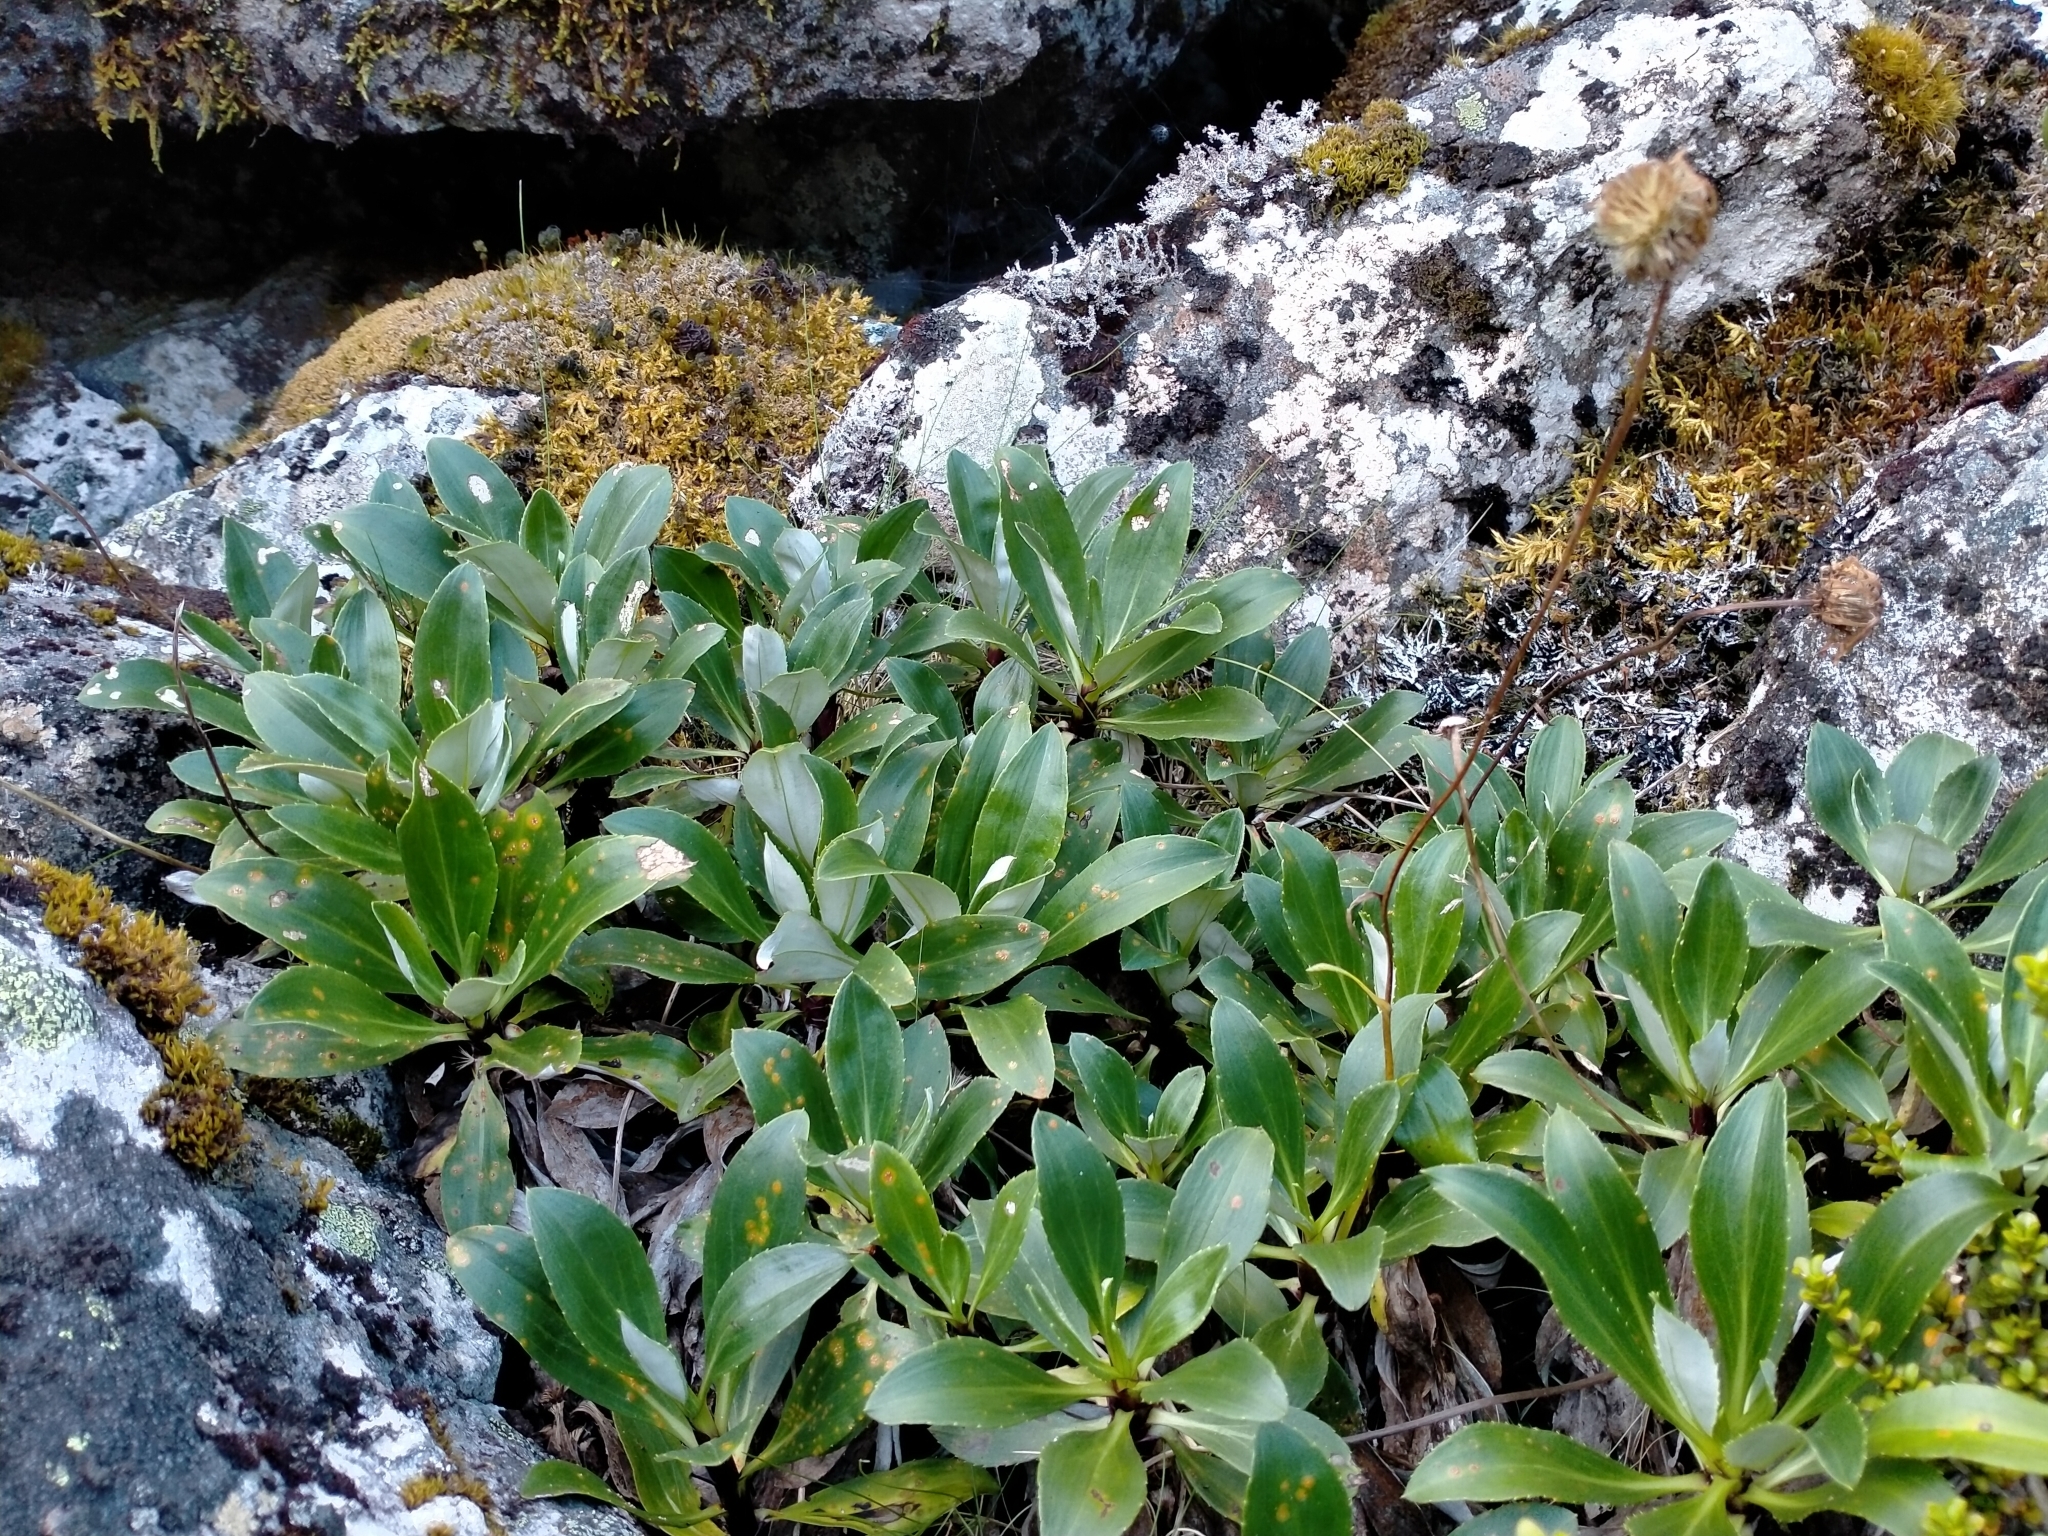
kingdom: Plantae
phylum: Tracheophyta
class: Magnoliopsida
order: Asterales
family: Asteraceae
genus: Celmisia
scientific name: Celmisia holosericea
